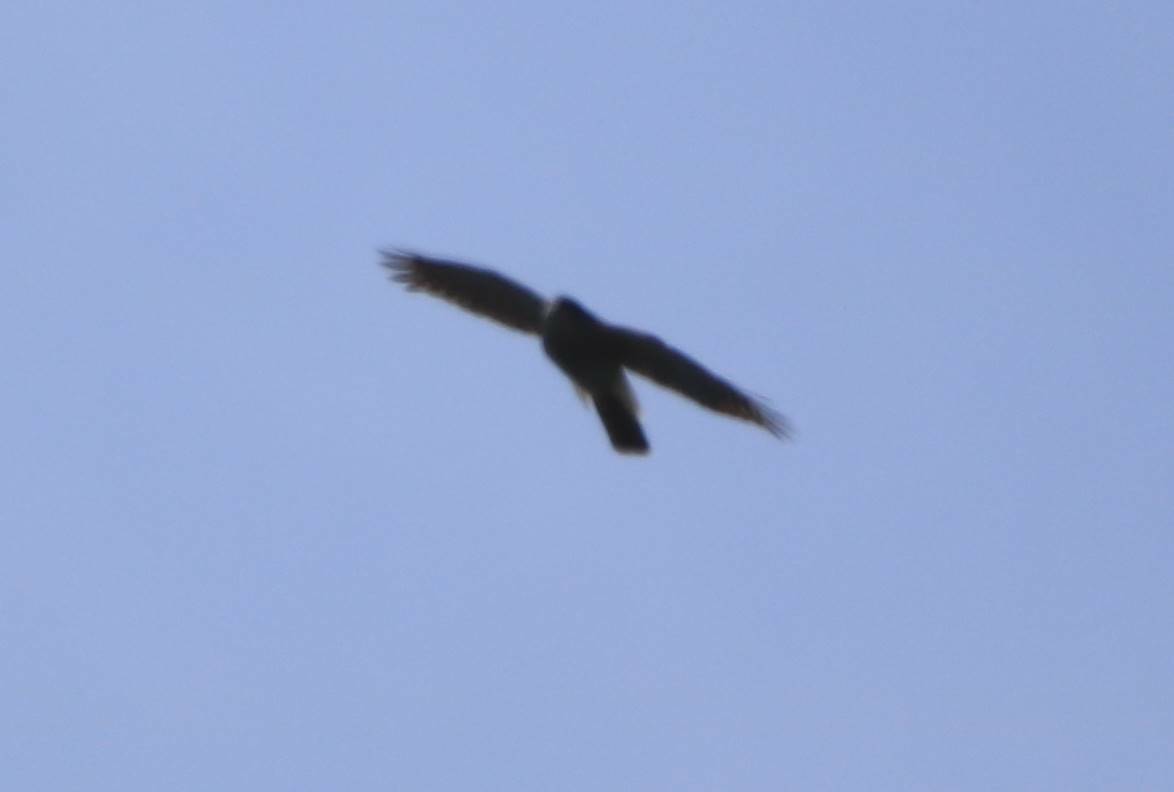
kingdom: Animalia
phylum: Chordata
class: Aves
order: Accipitriformes
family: Accipitridae
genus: Accipiter
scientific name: Accipiter nisus
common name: Eurasian sparrowhawk
